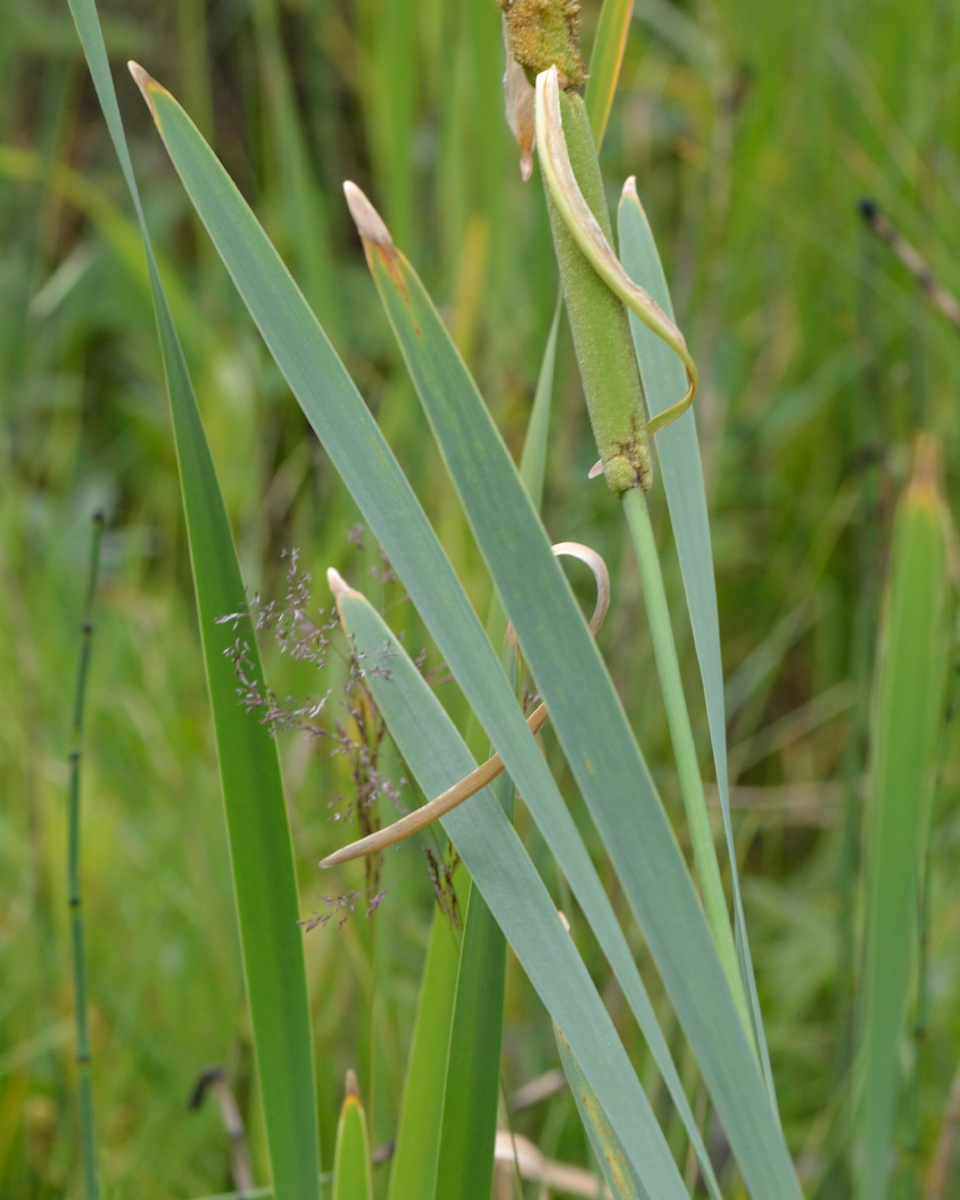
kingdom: Plantae
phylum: Tracheophyta
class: Liliopsida
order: Poales
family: Typhaceae
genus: Typha
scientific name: Typha latifolia
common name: Broadleaf cattail
